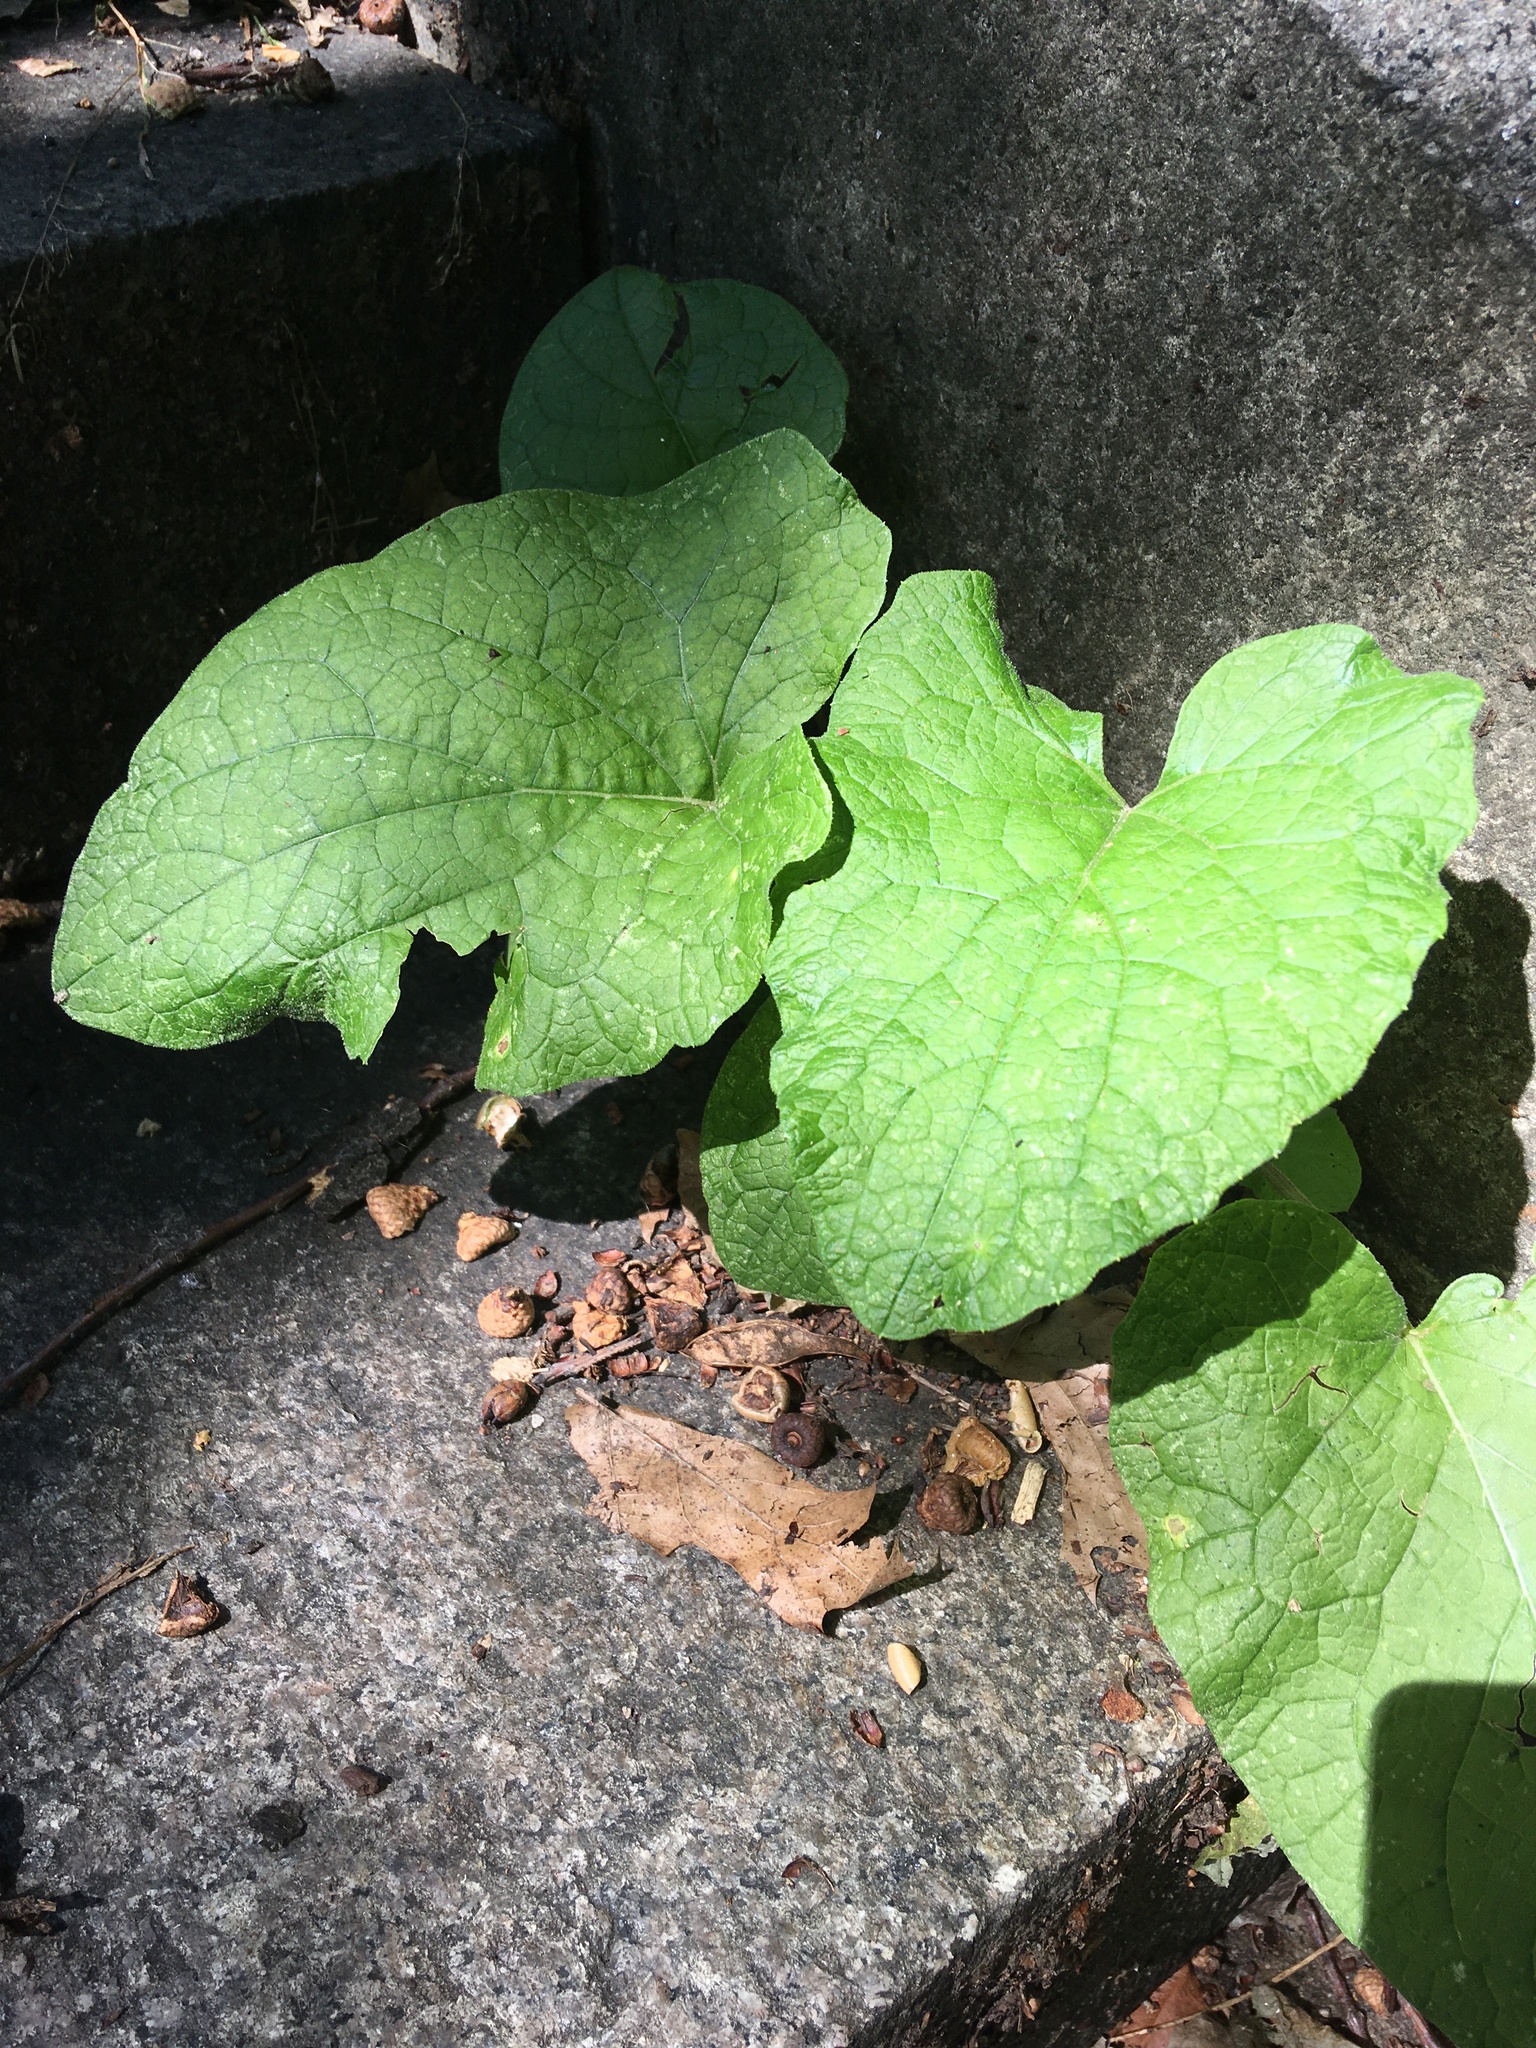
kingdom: Plantae
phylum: Tracheophyta
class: Magnoliopsida
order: Asterales
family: Asteraceae
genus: Arctium
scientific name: Arctium
